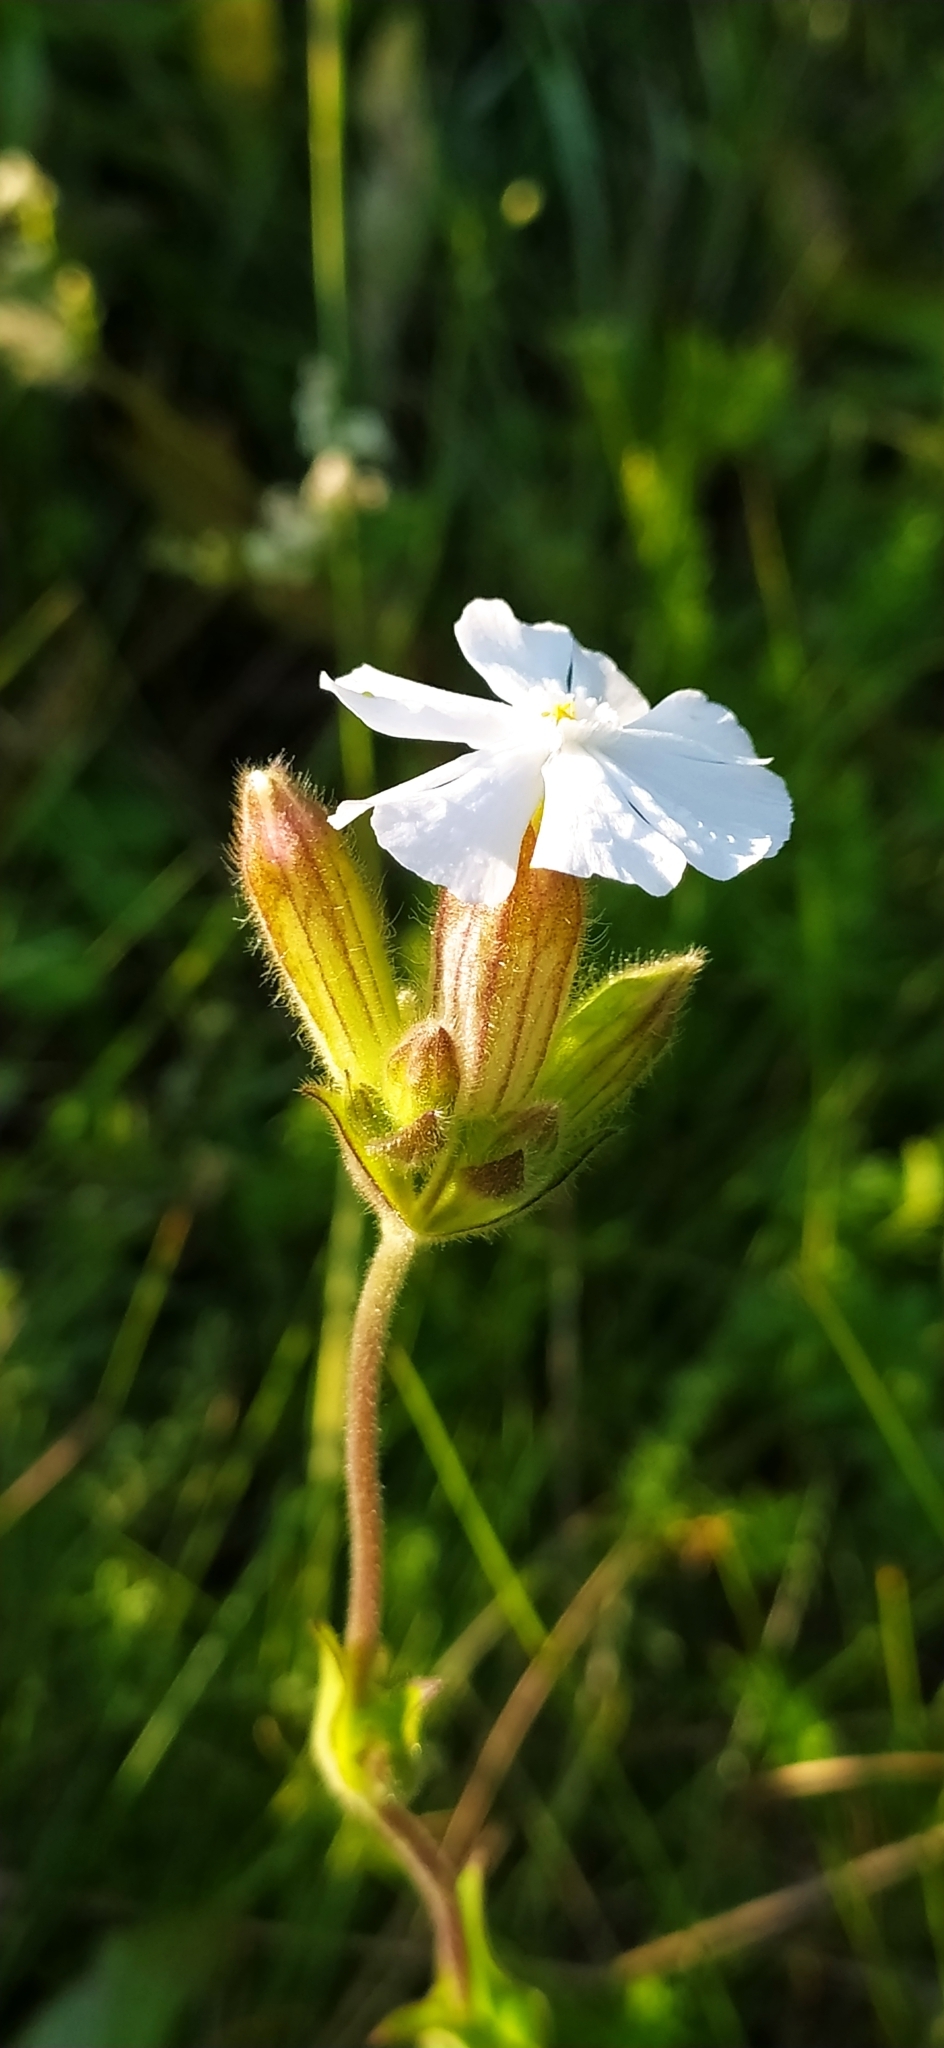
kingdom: Plantae
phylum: Tracheophyta
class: Magnoliopsida
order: Caryophyllales
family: Caryophyllaceae
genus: Silene
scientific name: Silene latifolia
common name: White campion
